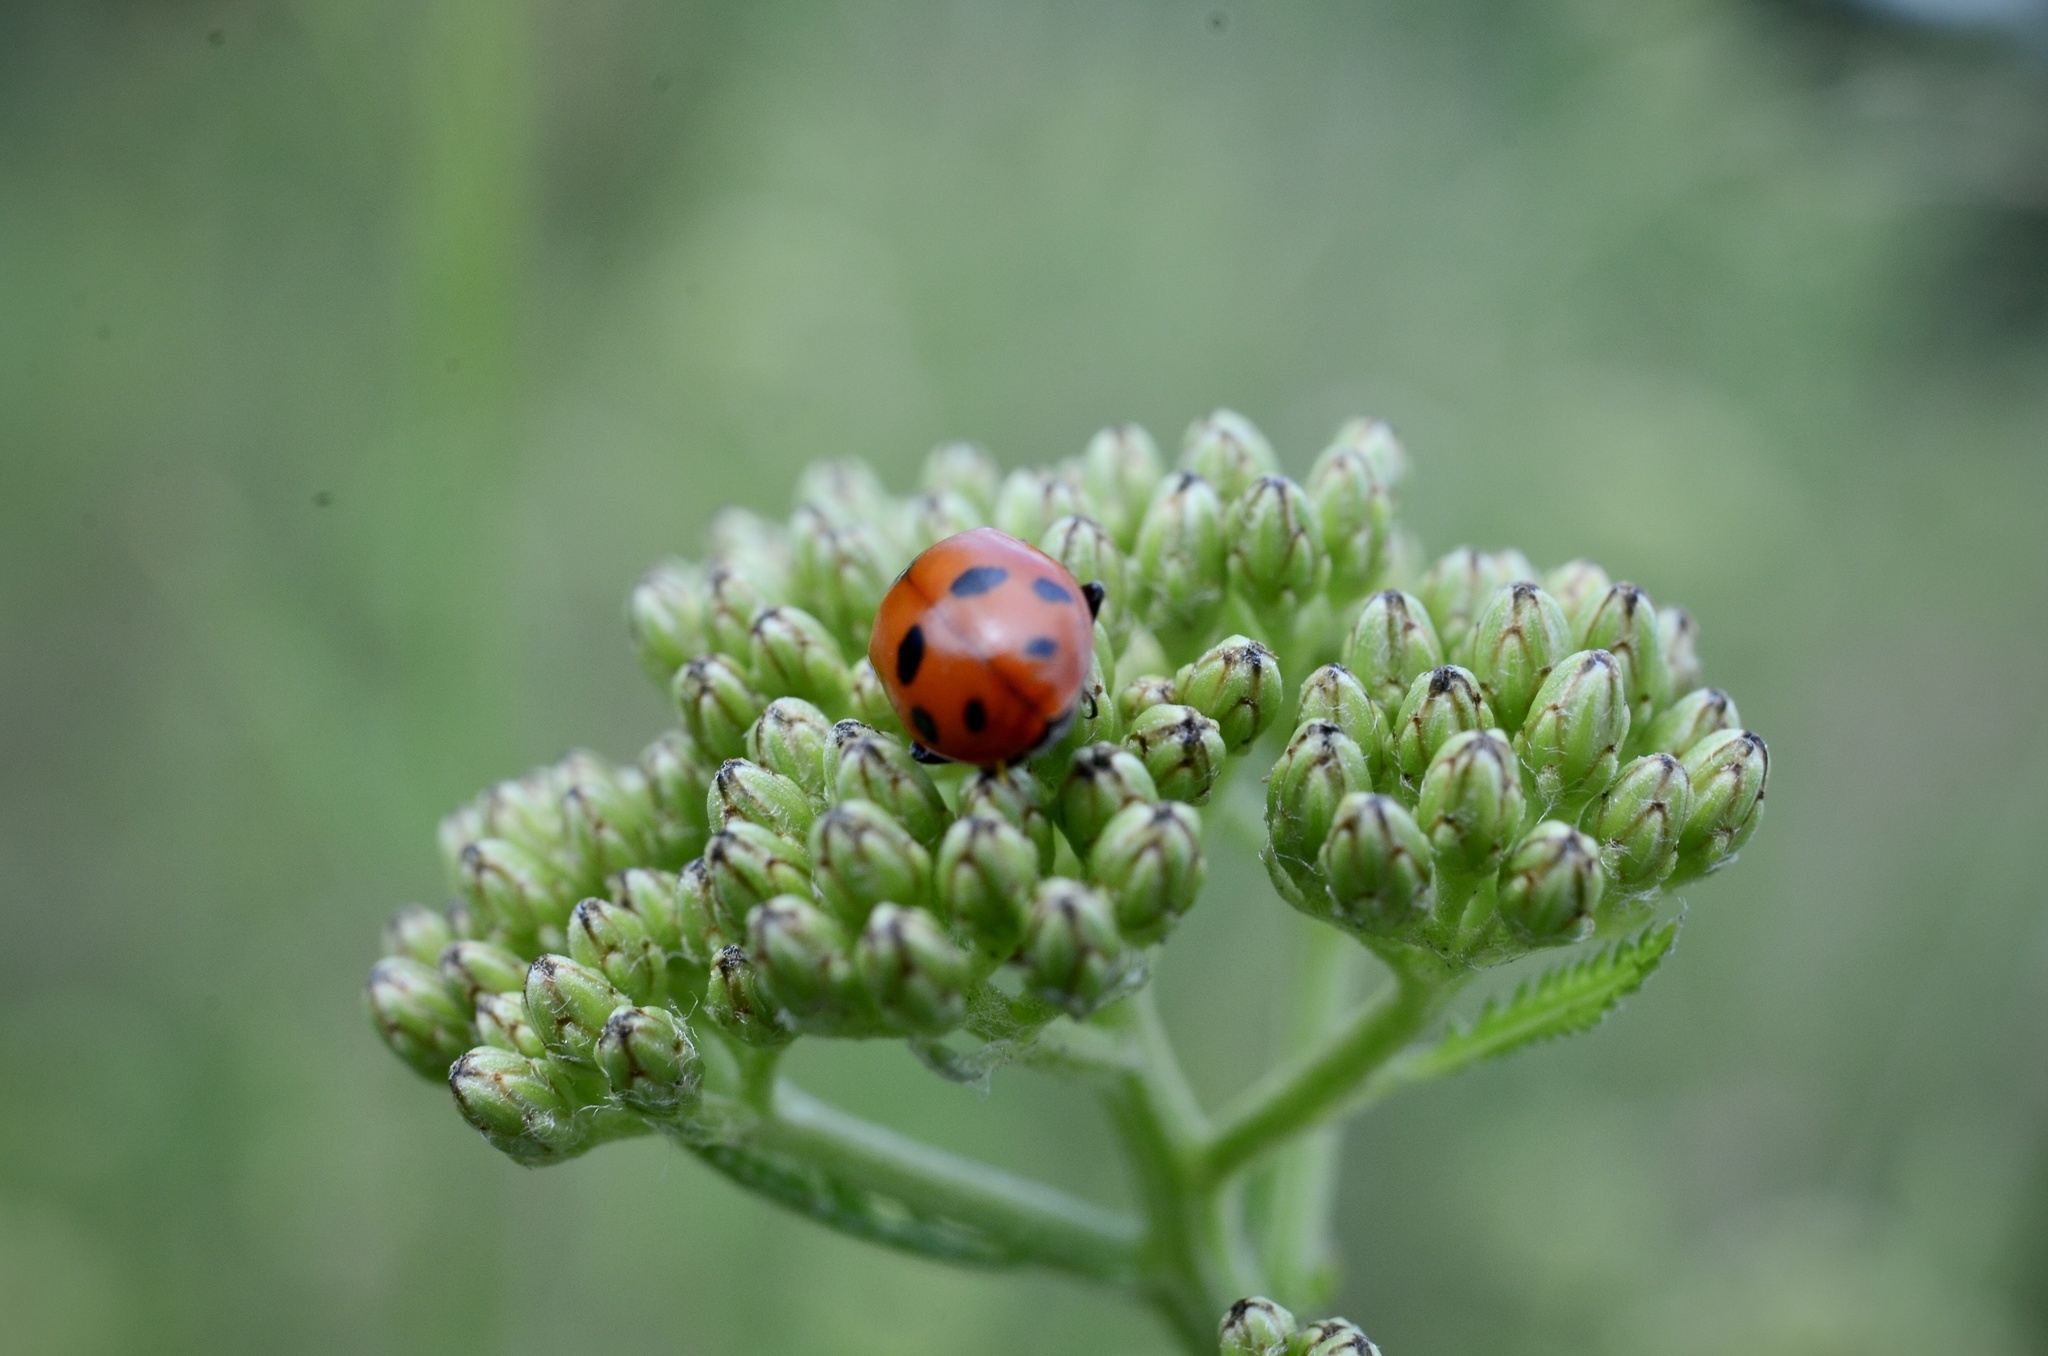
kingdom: Animalia
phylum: Arthropoda
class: Insecta
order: Coleoptera
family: Coccinellidae
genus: Hippodamia
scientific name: Hippodamia variegata
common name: Ladybird beetle
